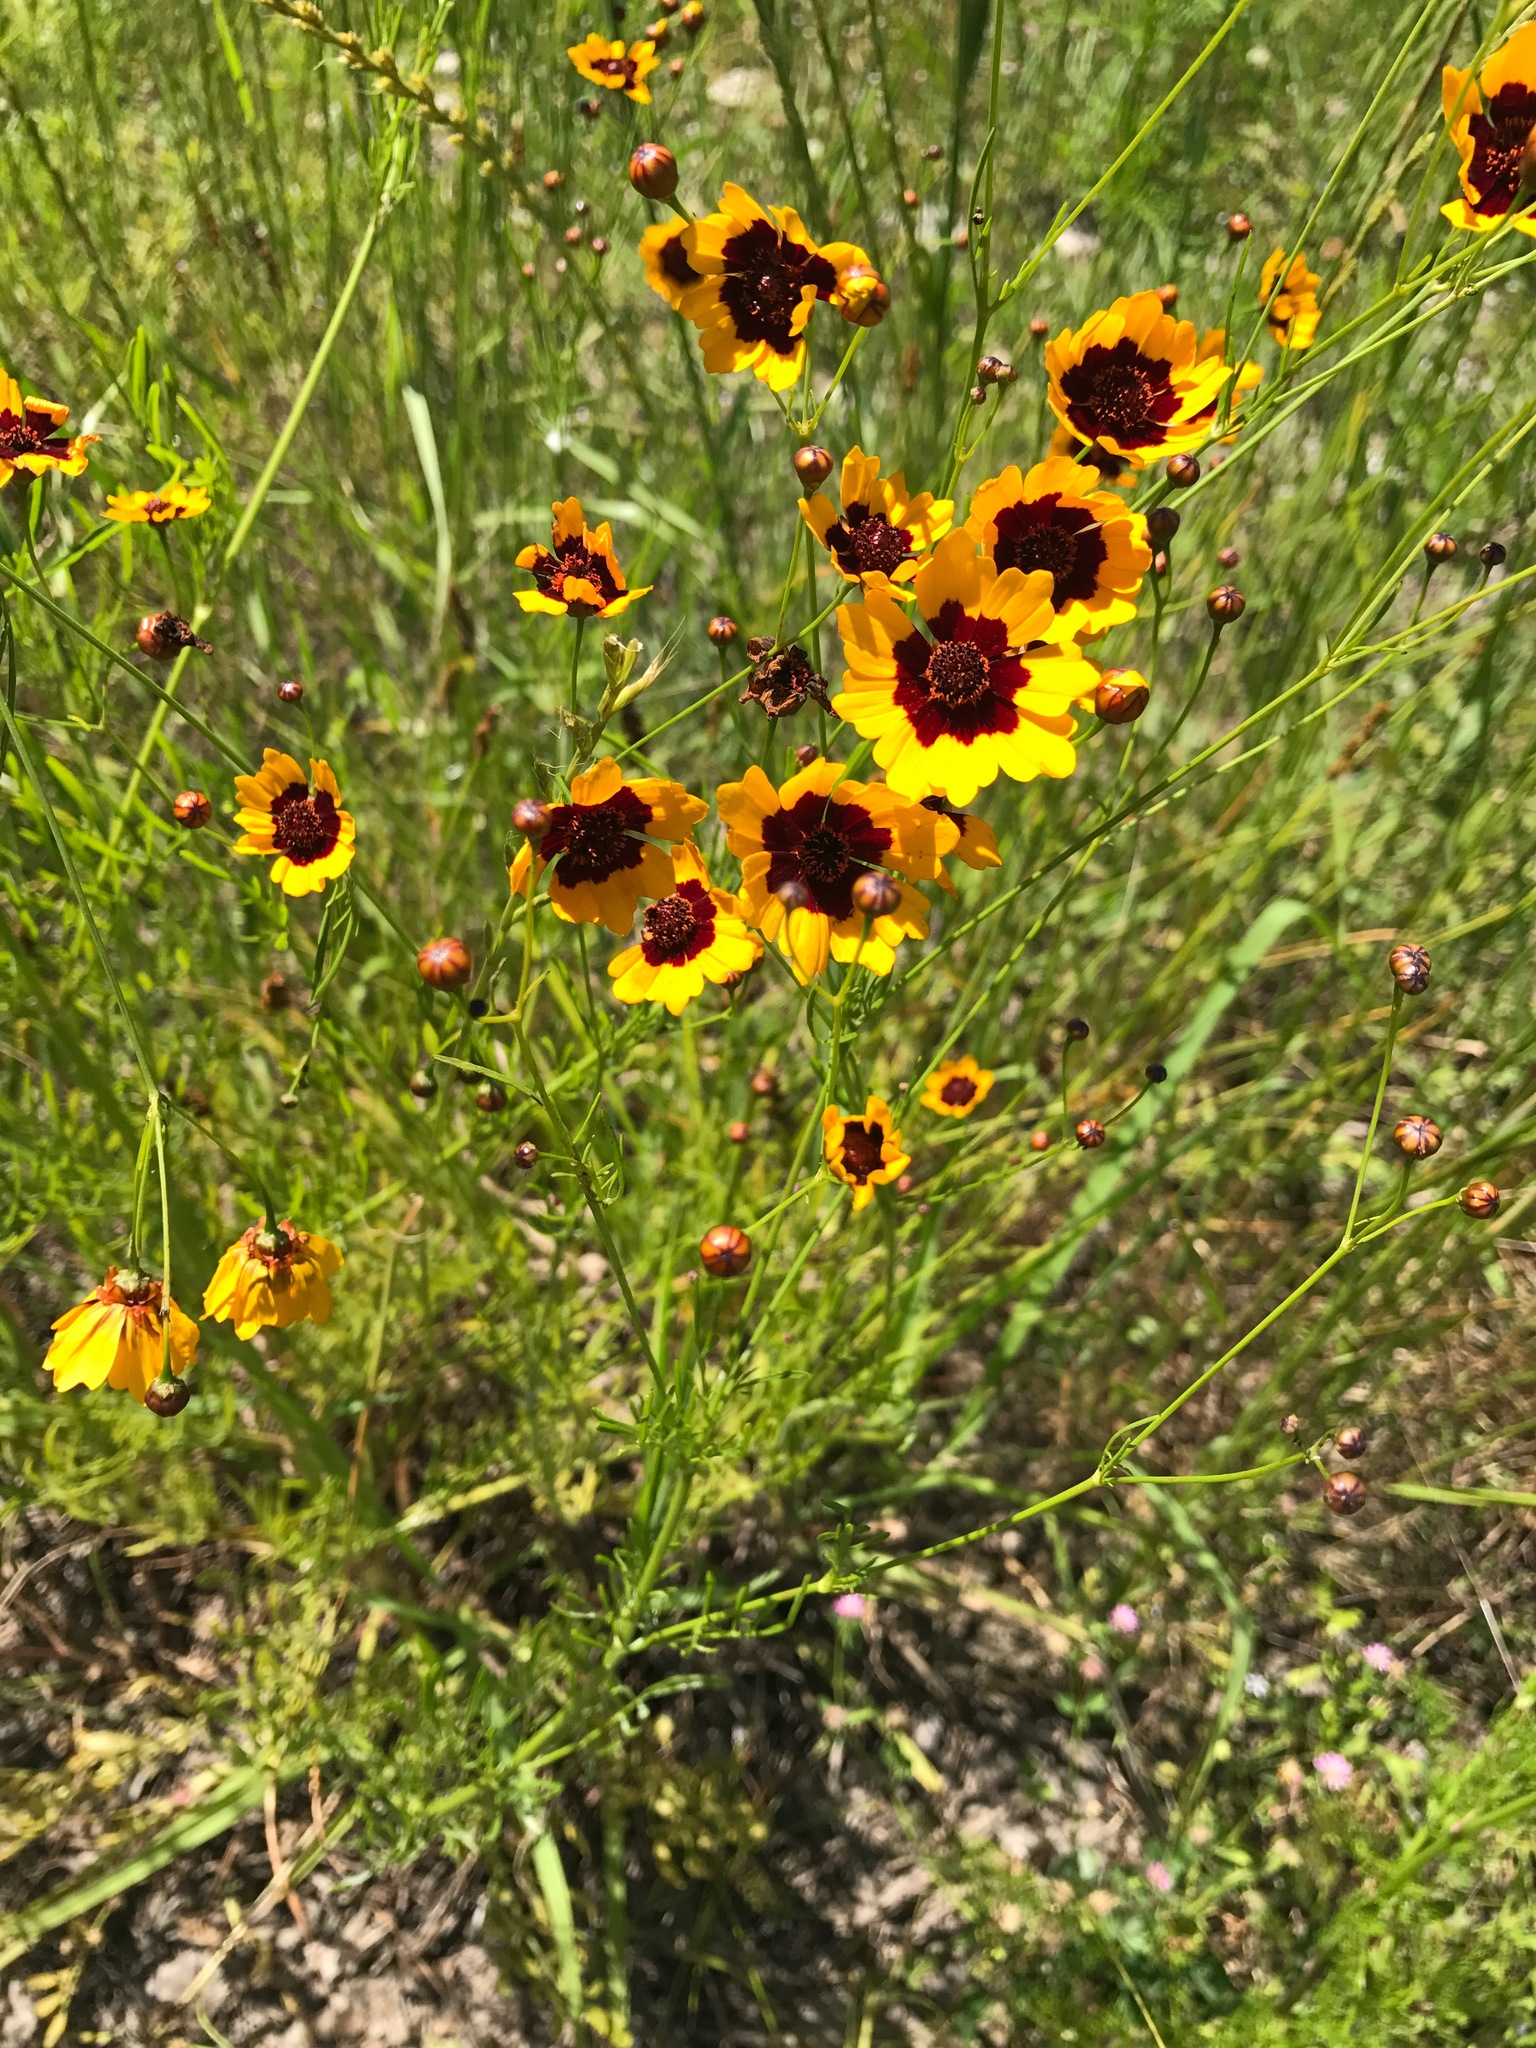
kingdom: Plantae
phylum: Tracheophyta
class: Magnoliopsida
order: Asterales
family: Asteraceae
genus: Coreopsis
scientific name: Coreopsis tinctoria
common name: Garden tickseed
